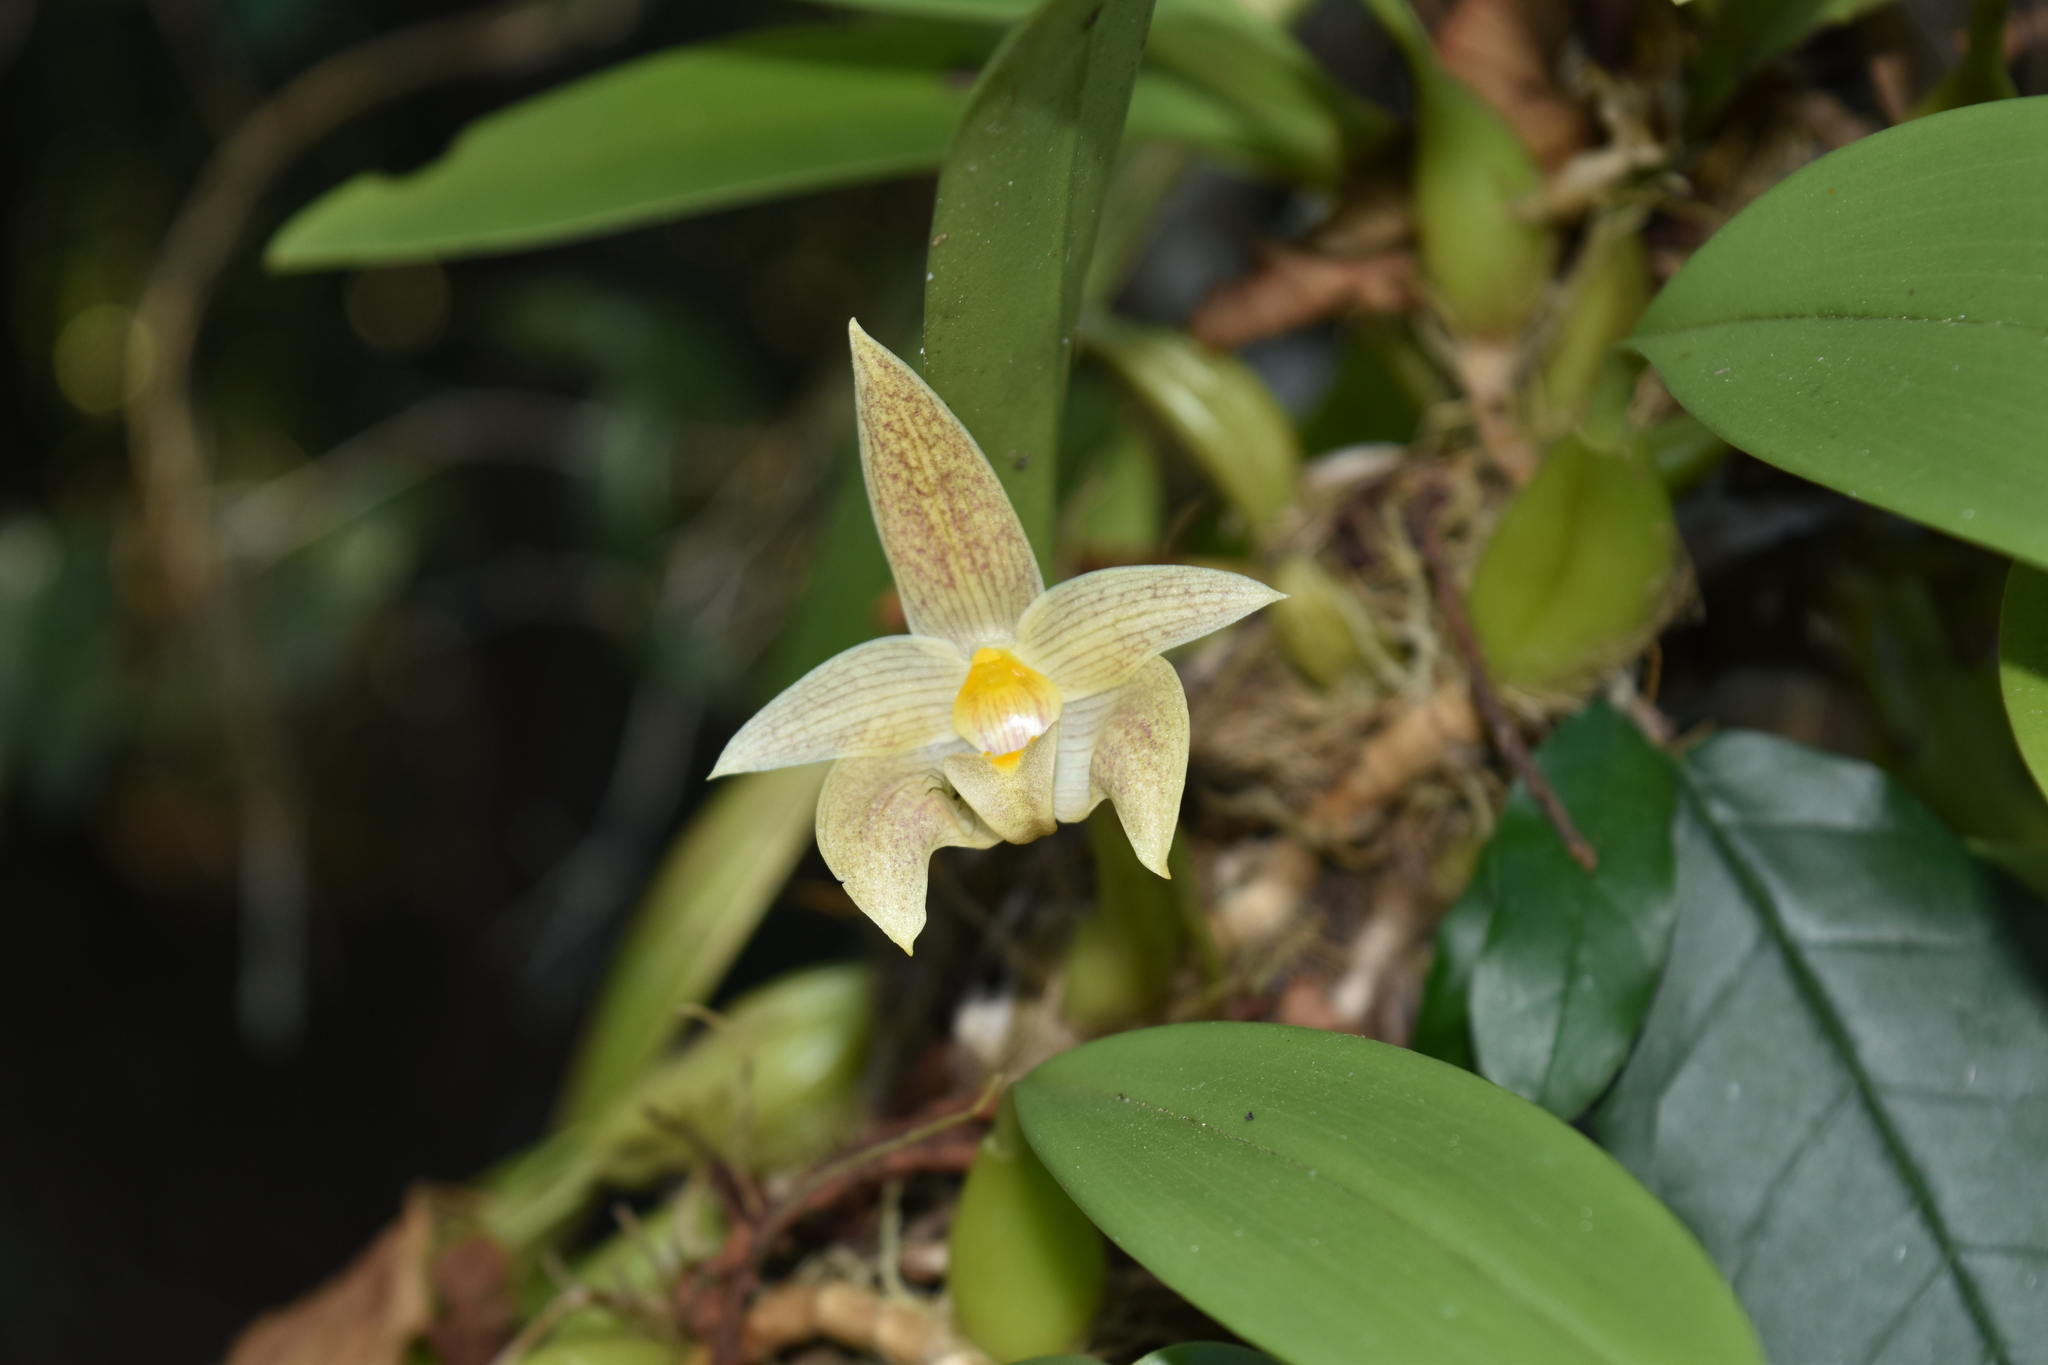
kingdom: Plantae
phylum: Tracheophyta
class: Liliopsida
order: Asparagales
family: Orchidaceae
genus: Bulbophyllum
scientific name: Bulbophyllum lobbii
